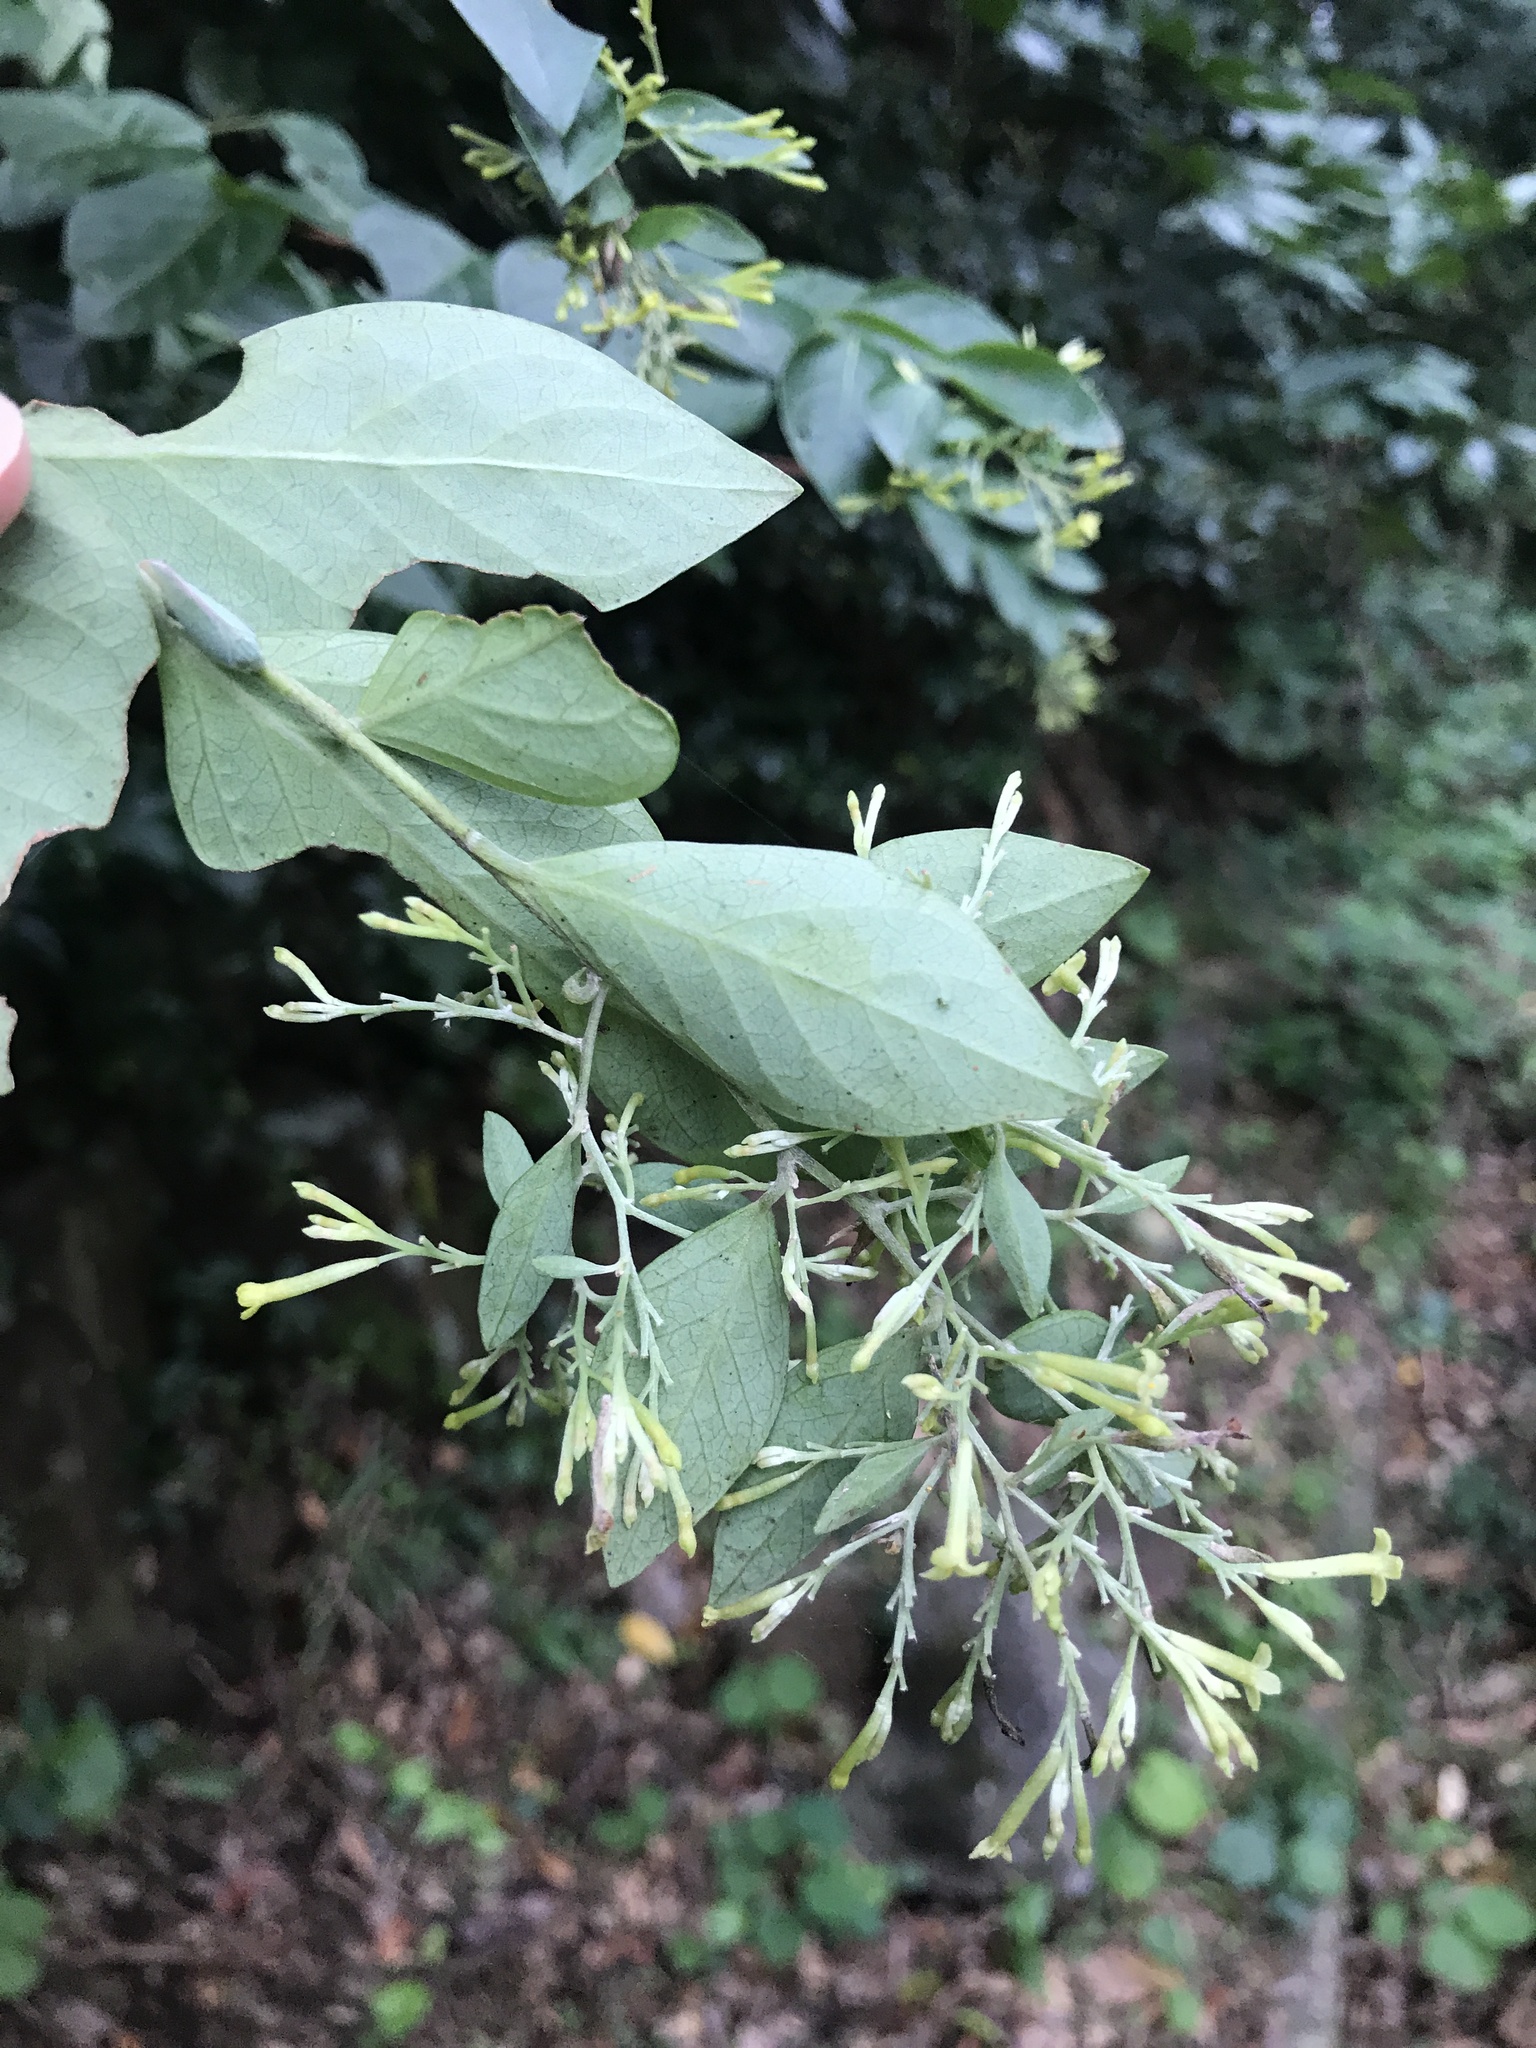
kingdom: Plantae
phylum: Tracheophyta
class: Magnoliopsida
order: Malvales
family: Thymelaeaceae
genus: Wikstroemia
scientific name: Wikstroemia pauciflora
